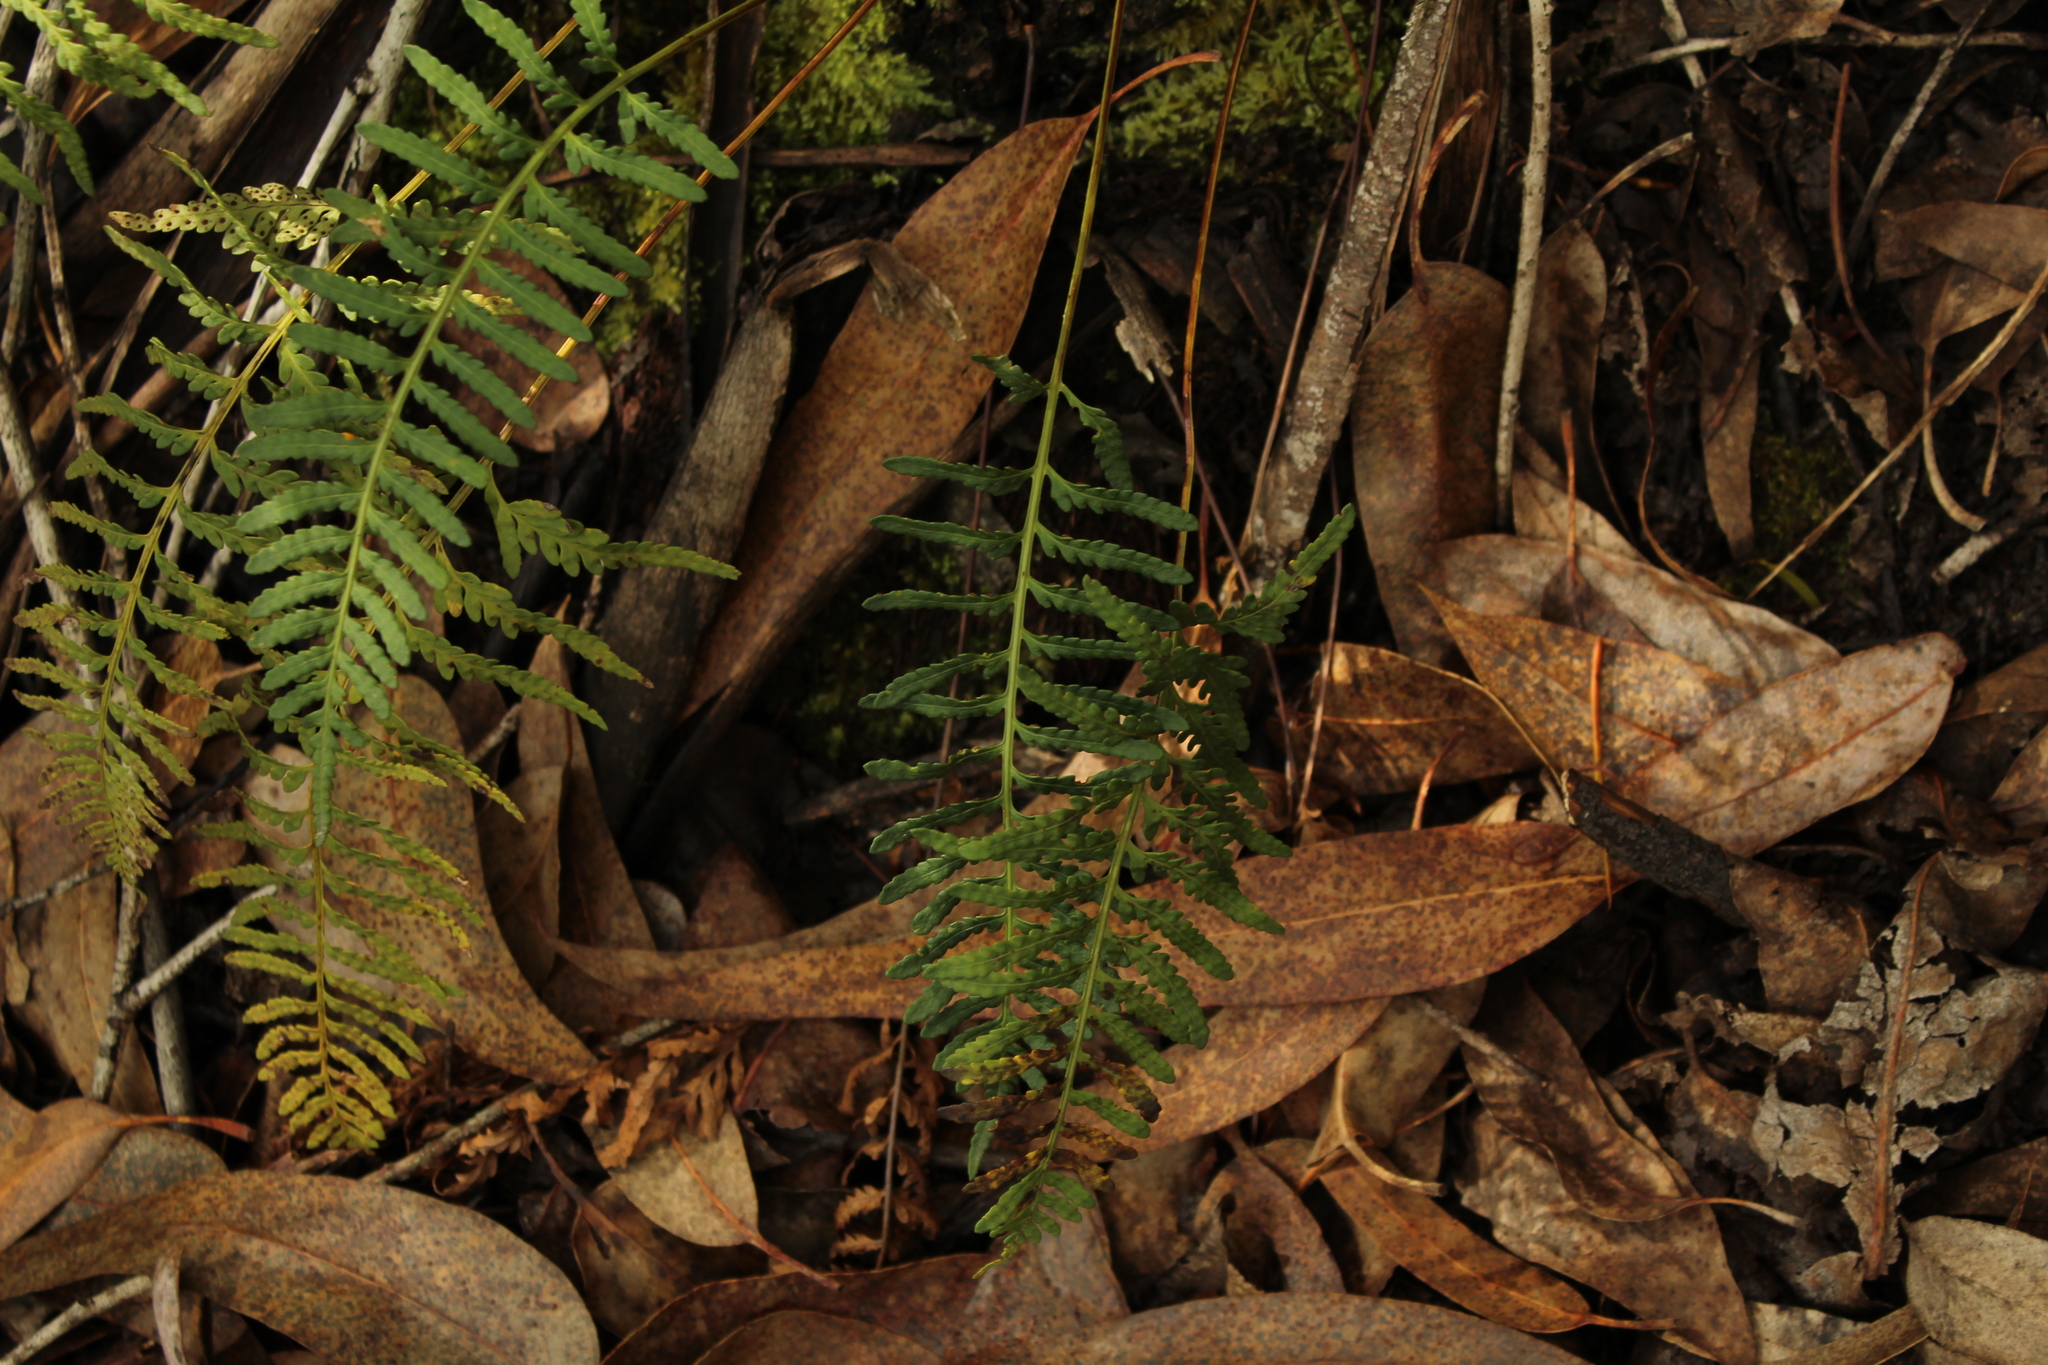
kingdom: Plantae
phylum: Tracheophyta
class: Polypodiopsida
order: Polypodiales
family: Polypodiaceae
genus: Pleopeltis
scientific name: Pleopeltis murora
